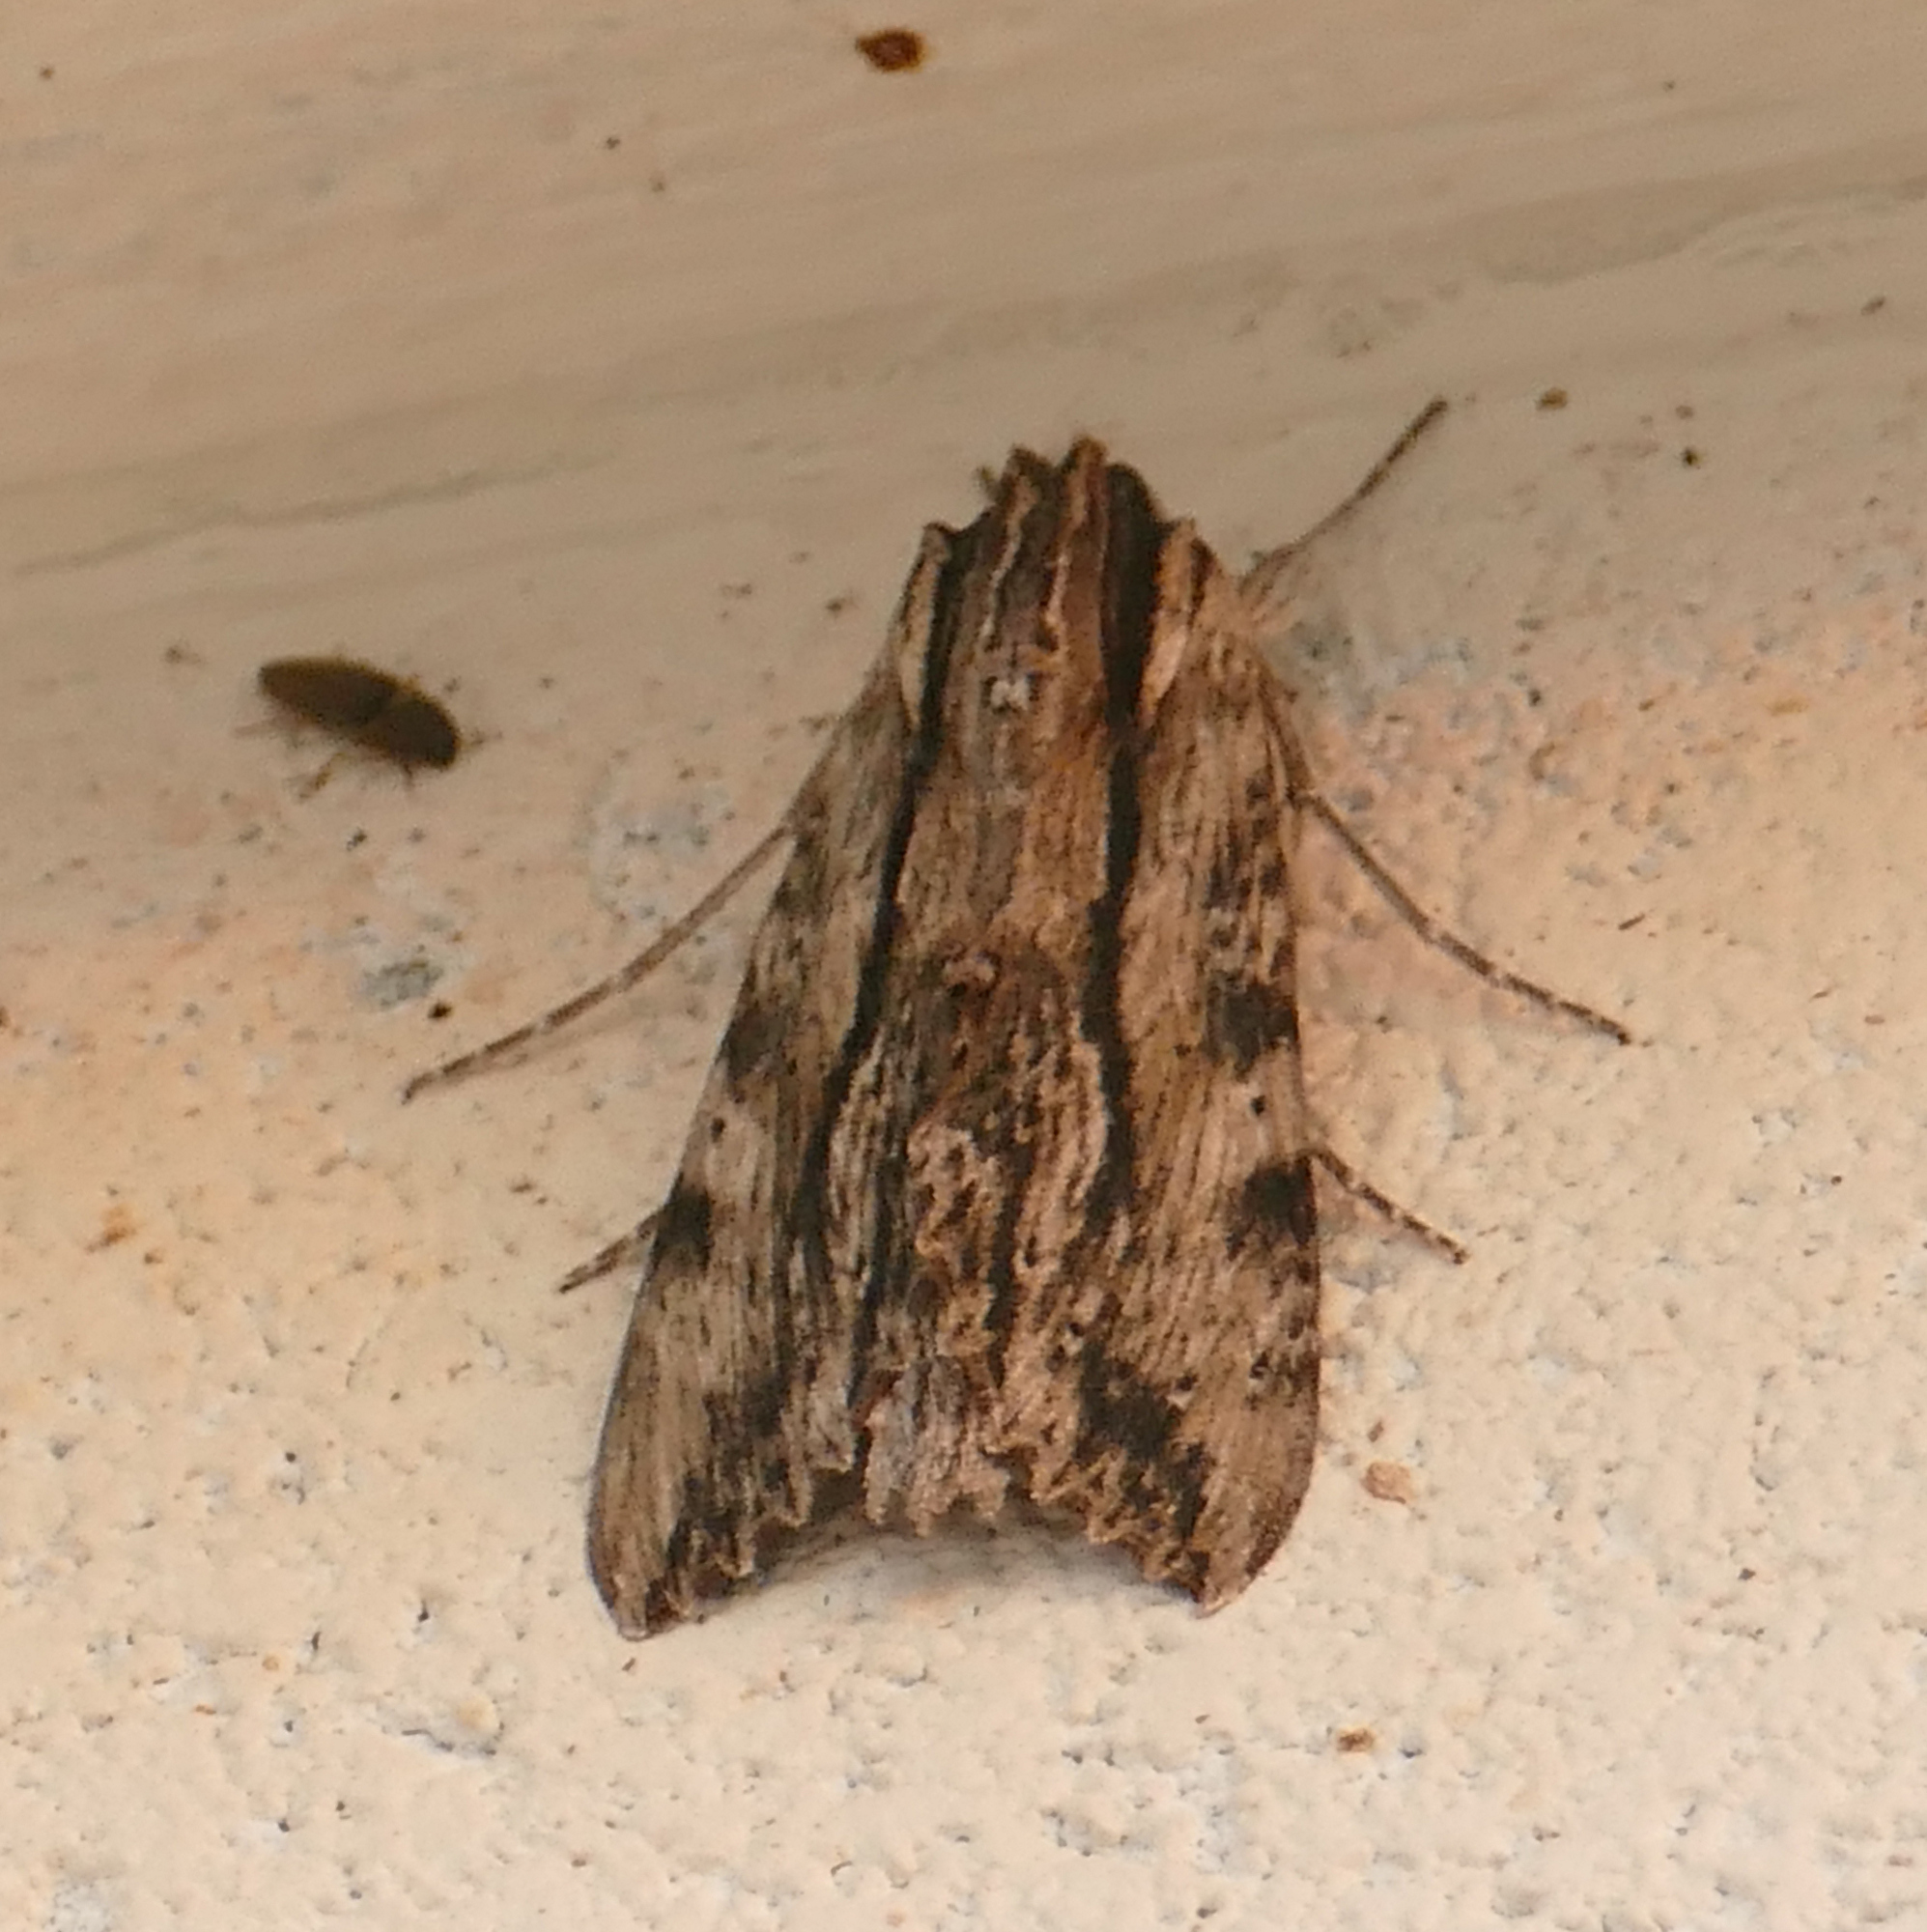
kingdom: Animalia
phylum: Arthropoda
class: Insecta
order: Lepidoptera
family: Sphingidae
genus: Erinnyis
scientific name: Erinnyis obscura
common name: Obscure sphinx
